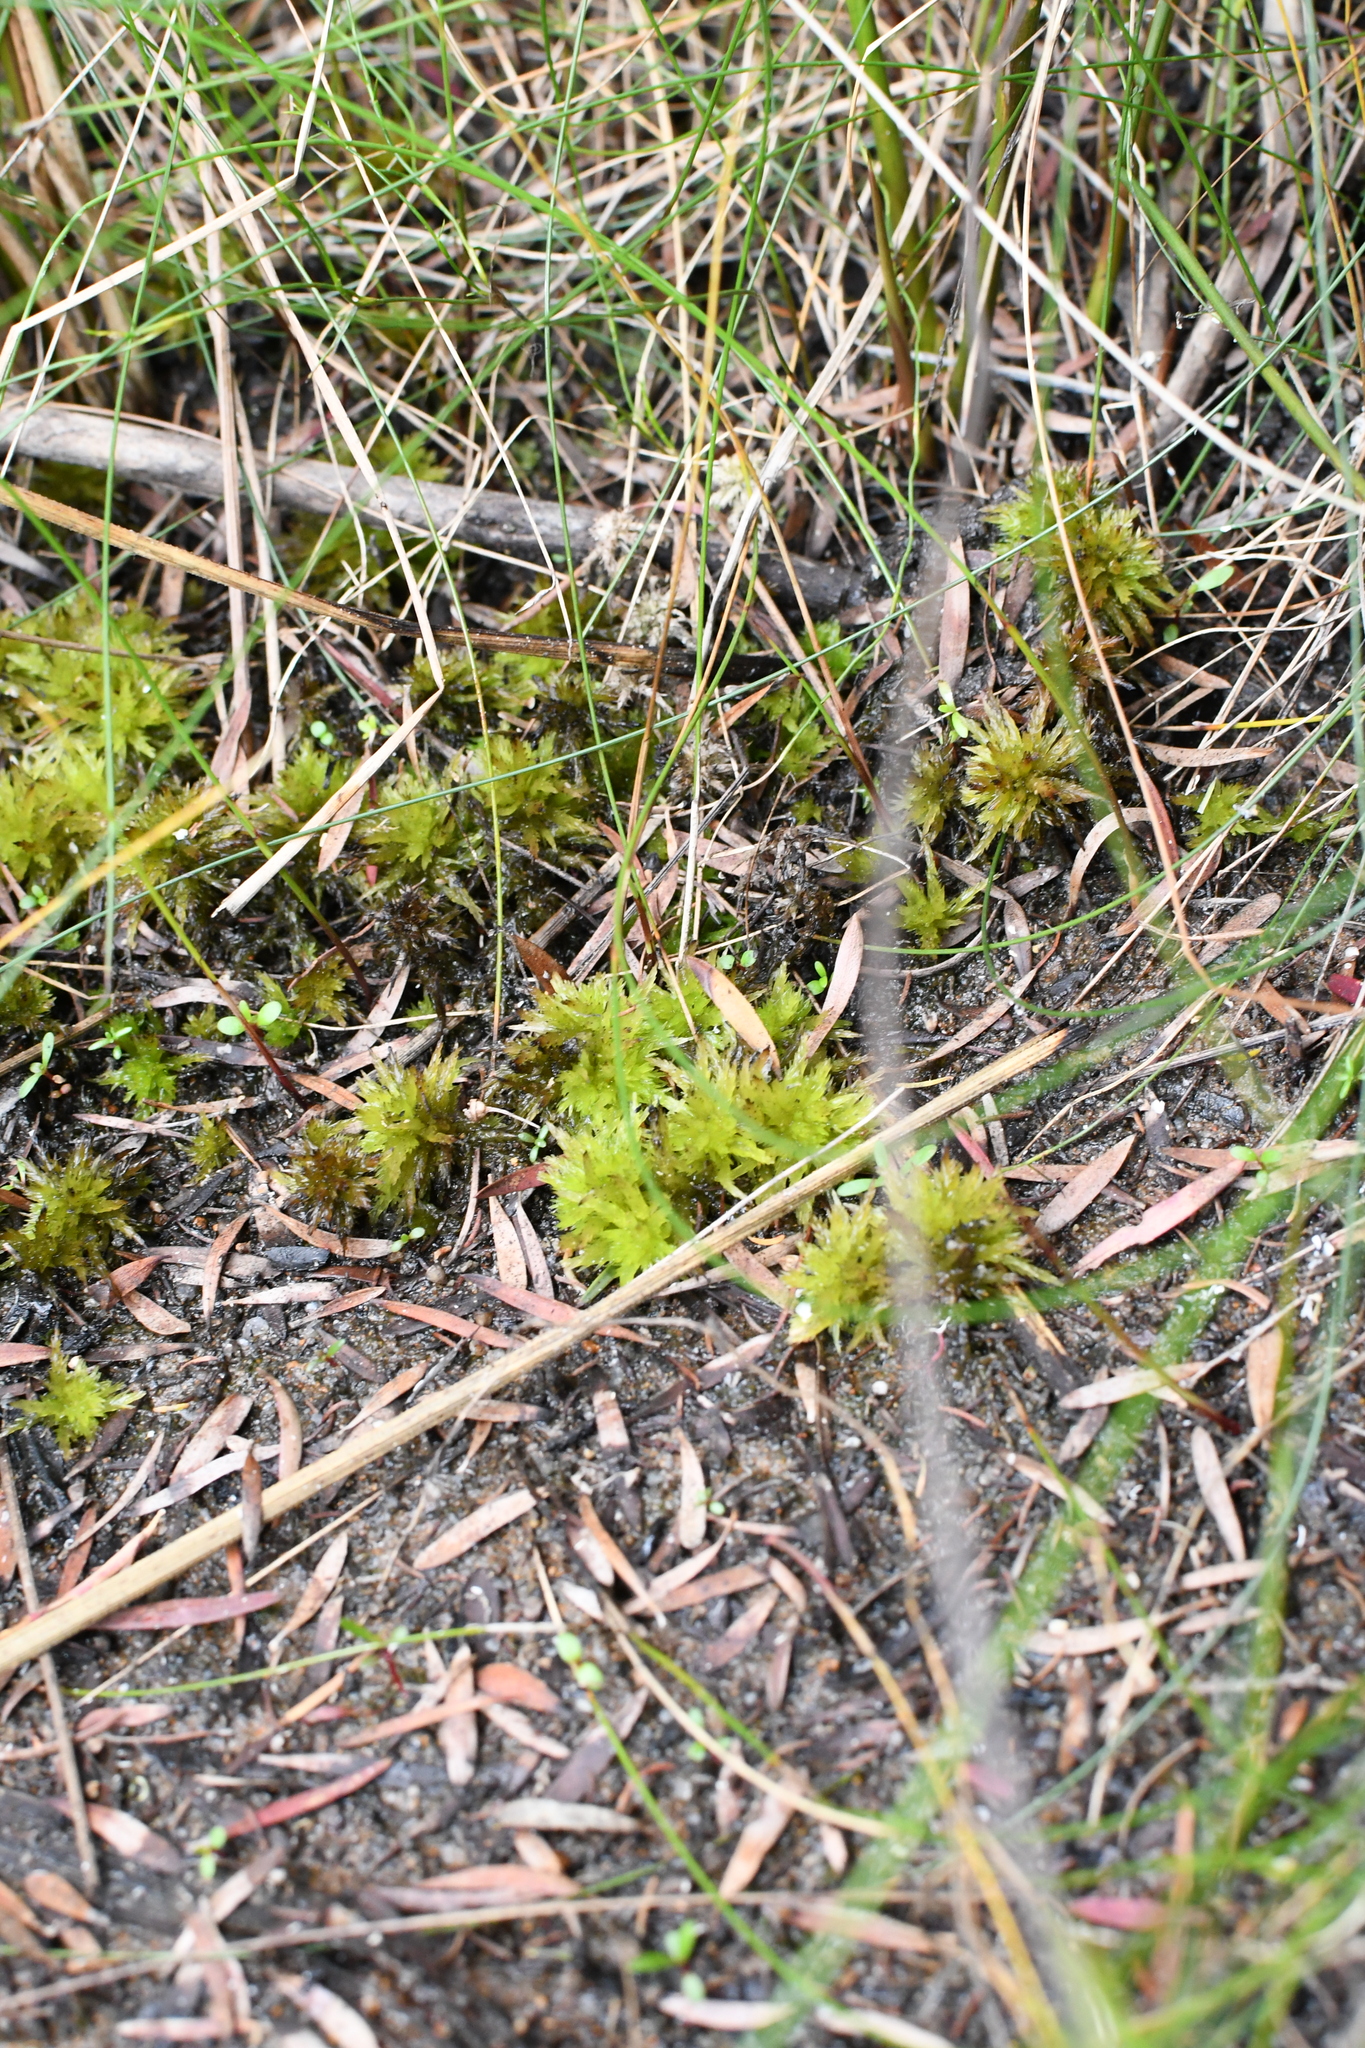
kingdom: Plantae
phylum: Bryophyta
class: Sphagnopsida
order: Sphagnales
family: Sphagnaceae
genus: Sphagnum
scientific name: Sphagnum novozelandicum
